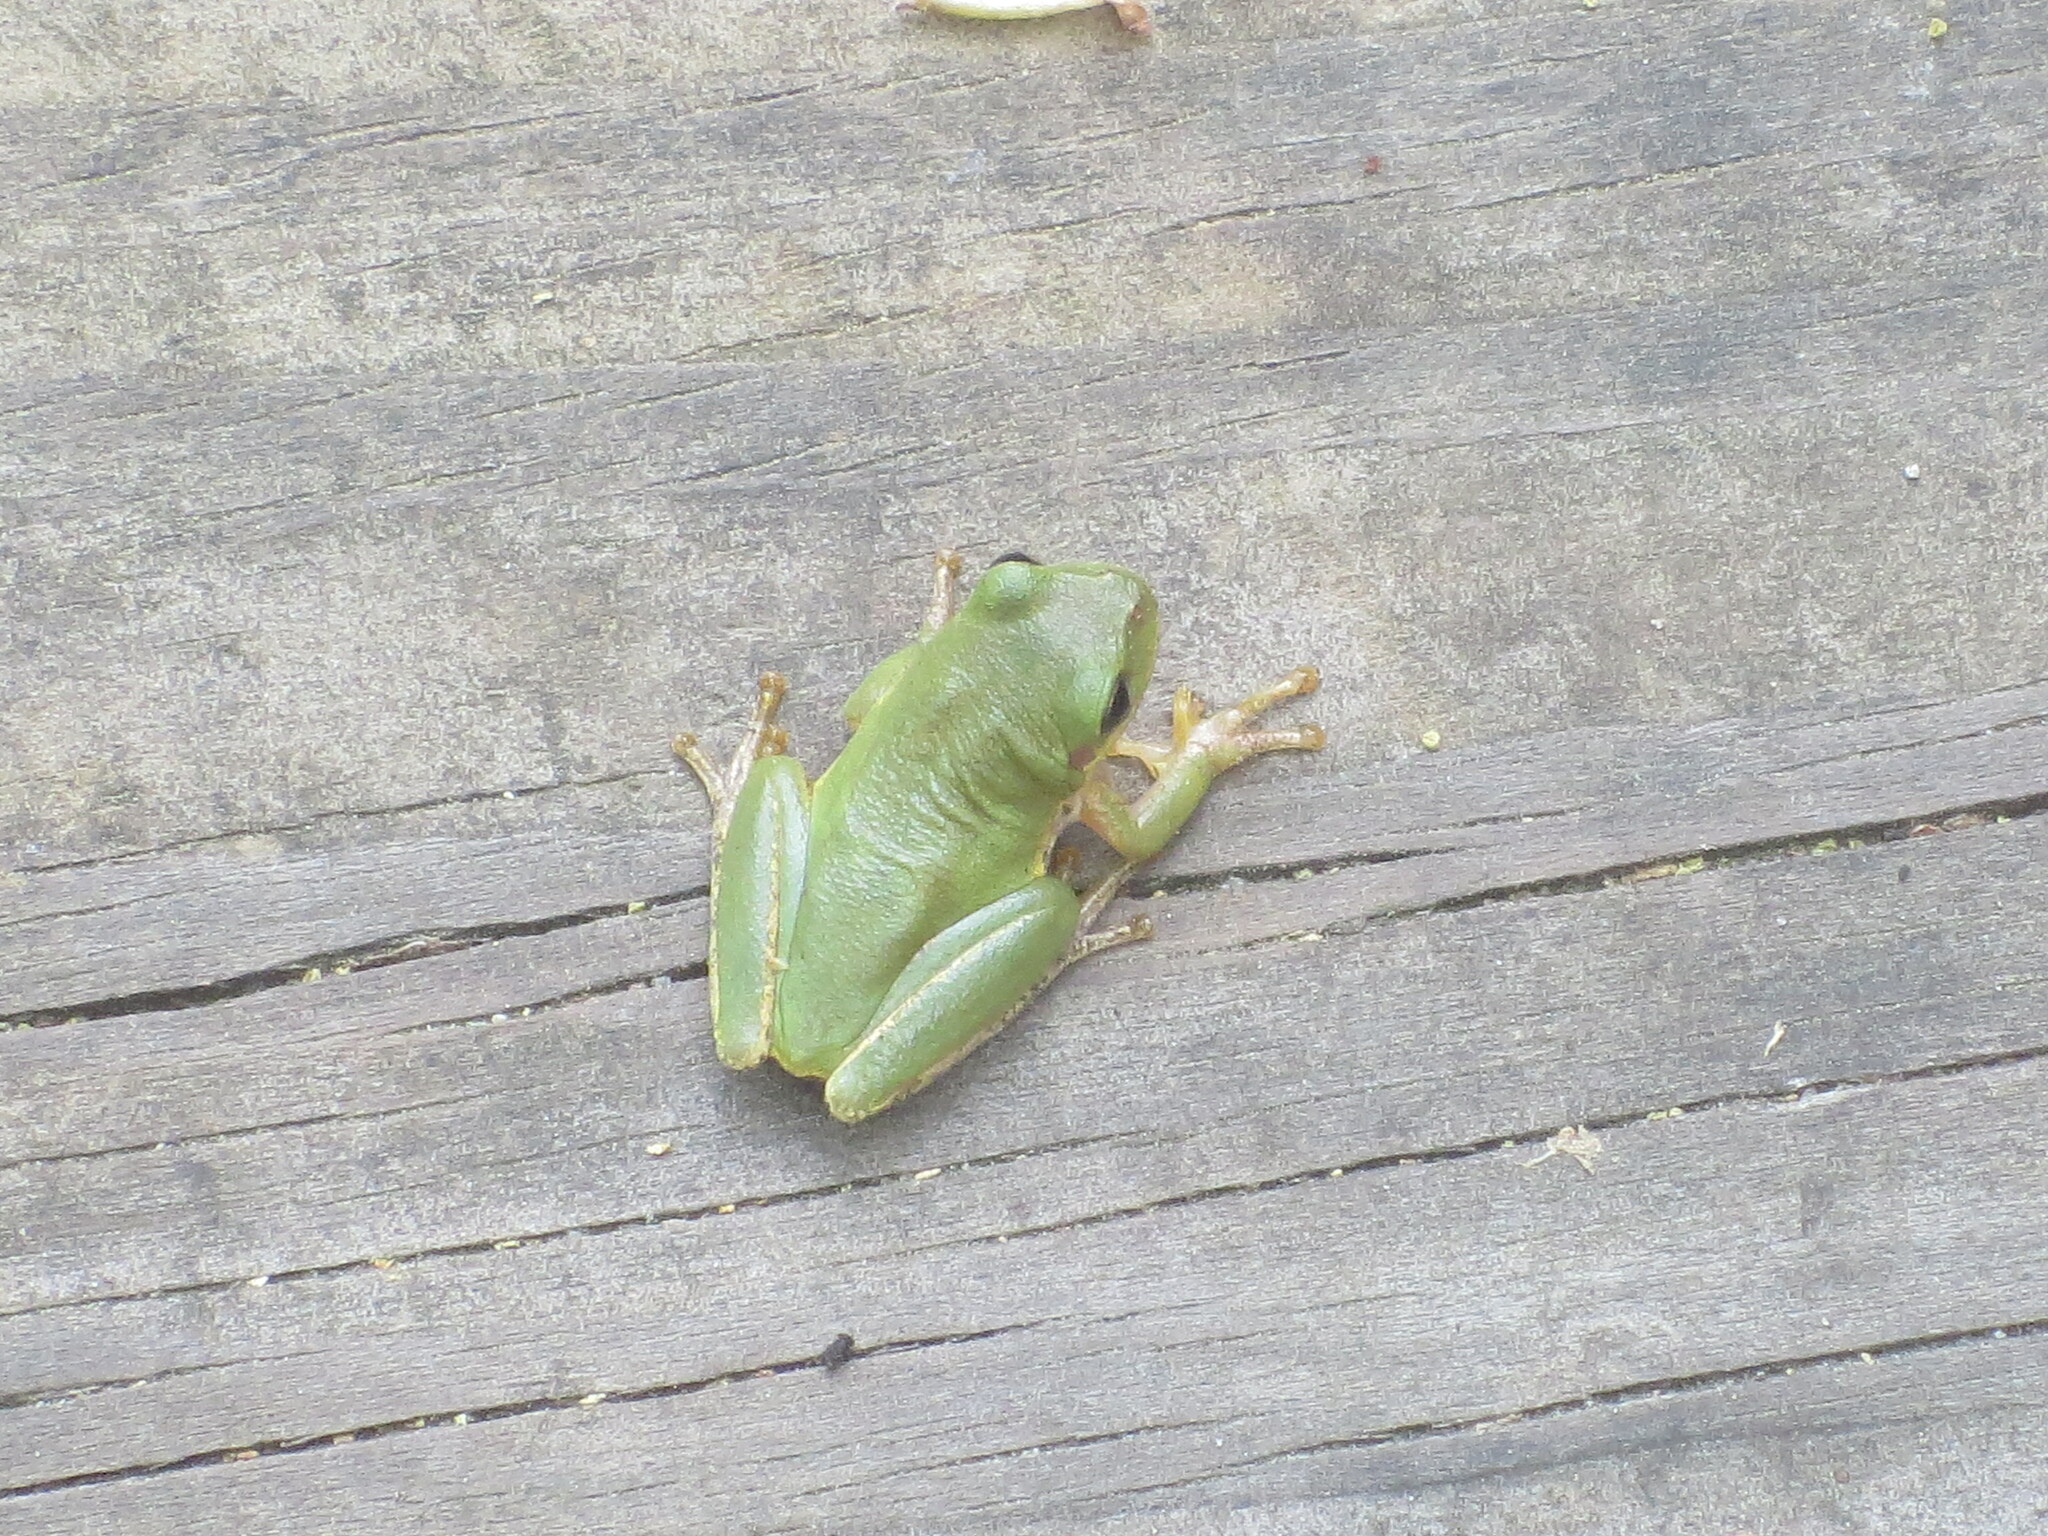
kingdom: Animalia
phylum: Chordata
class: Amphibia
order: Anura
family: Hylidae
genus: Dryophytes
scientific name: Dryophytes squirellus
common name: Squirrel treefrog
